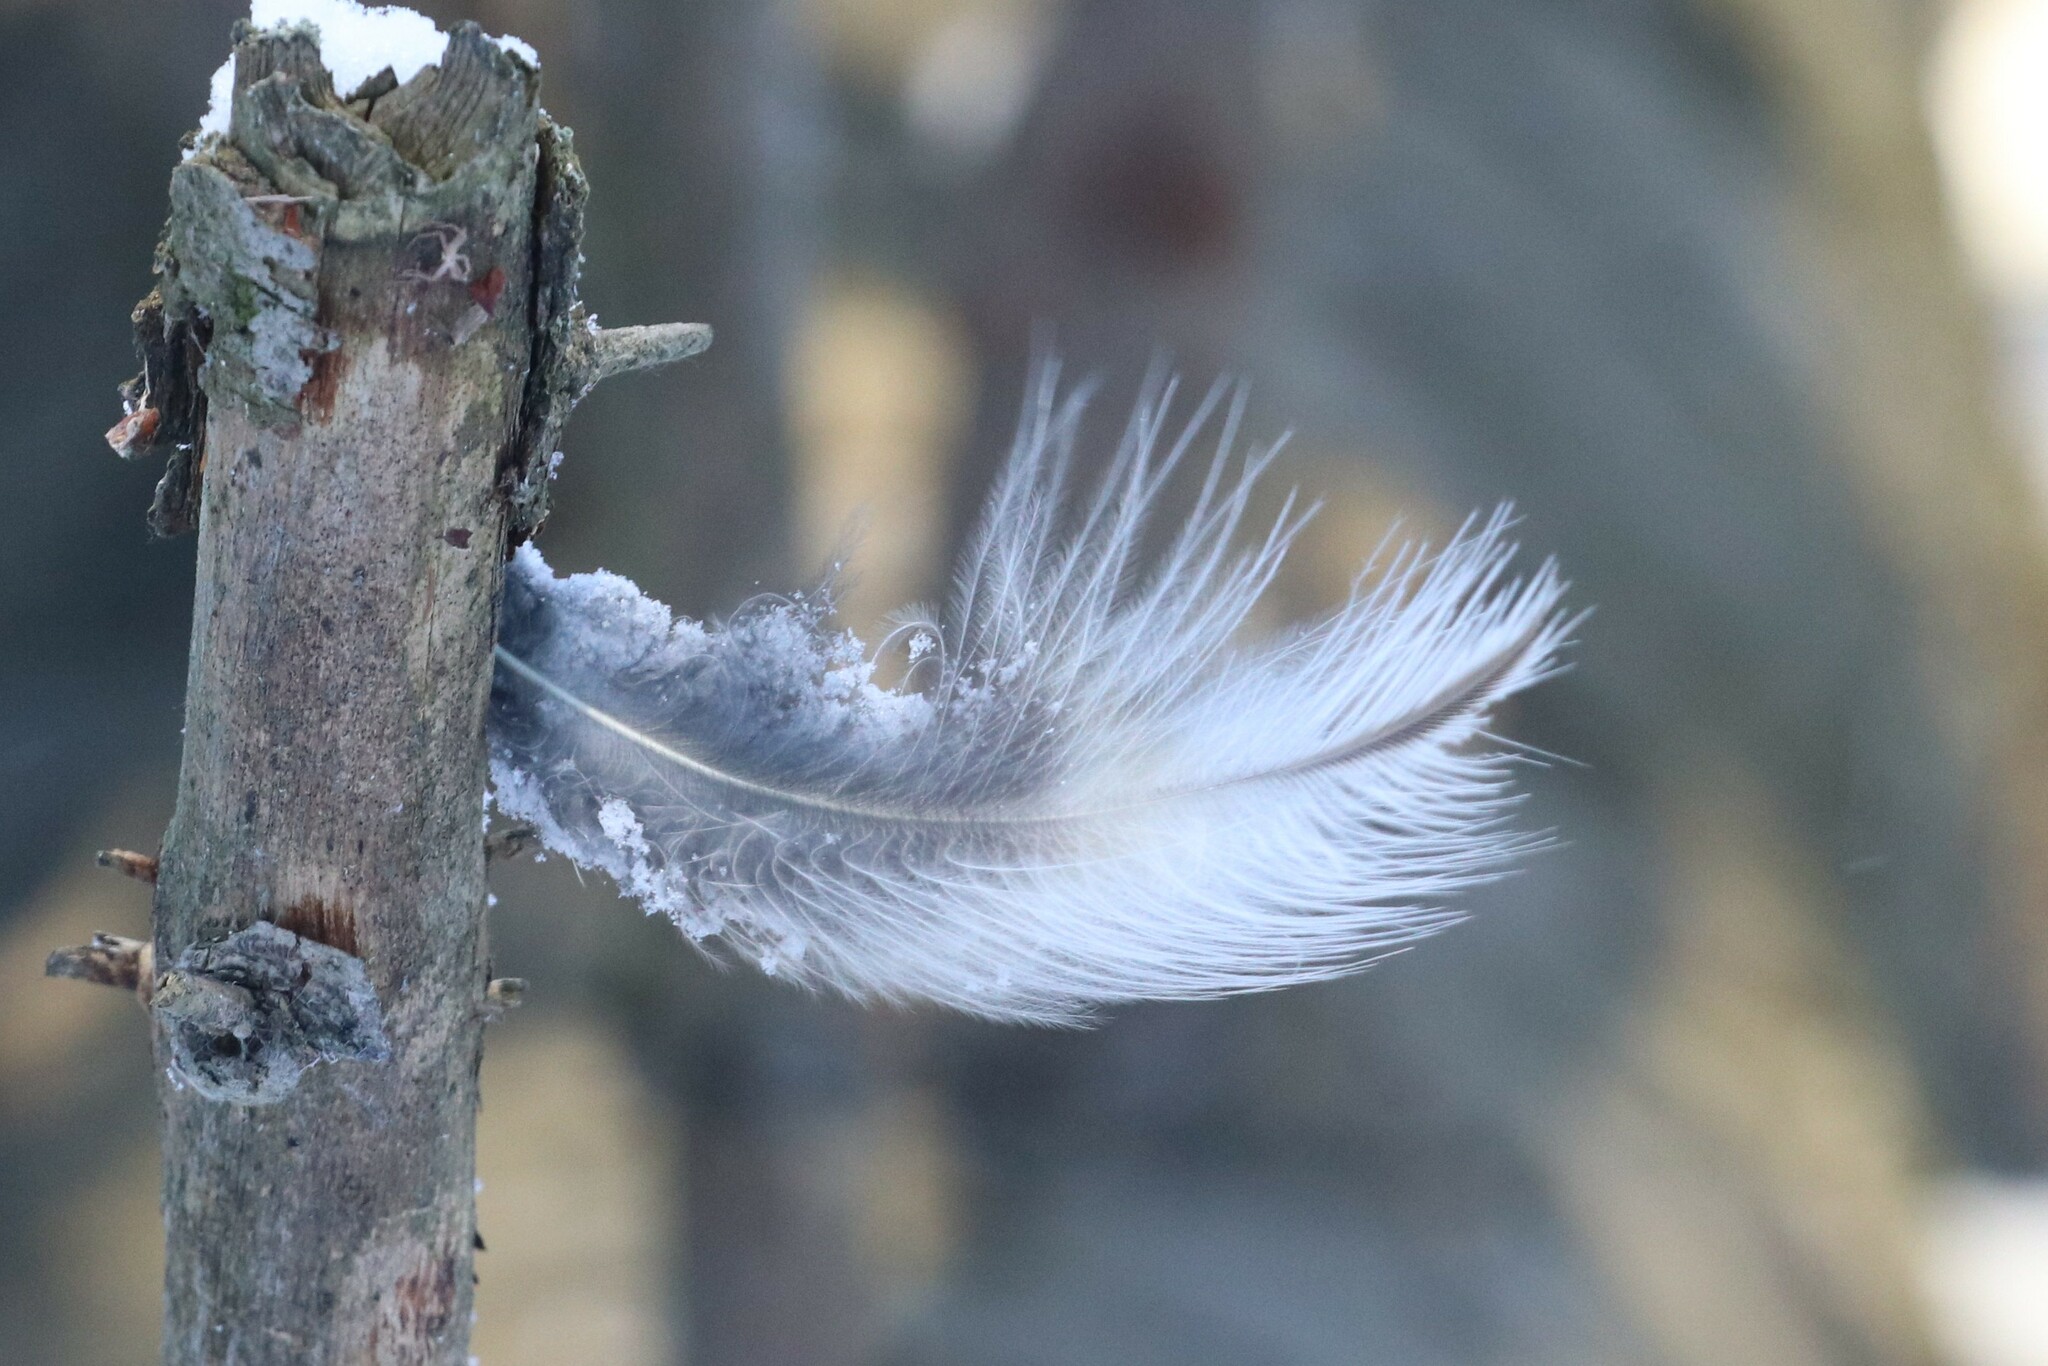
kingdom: Animalia
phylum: Chordata
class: Aves
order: Strigiformes
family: Strigidae
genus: Strix
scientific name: Strix uralensis
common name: Ural owl
